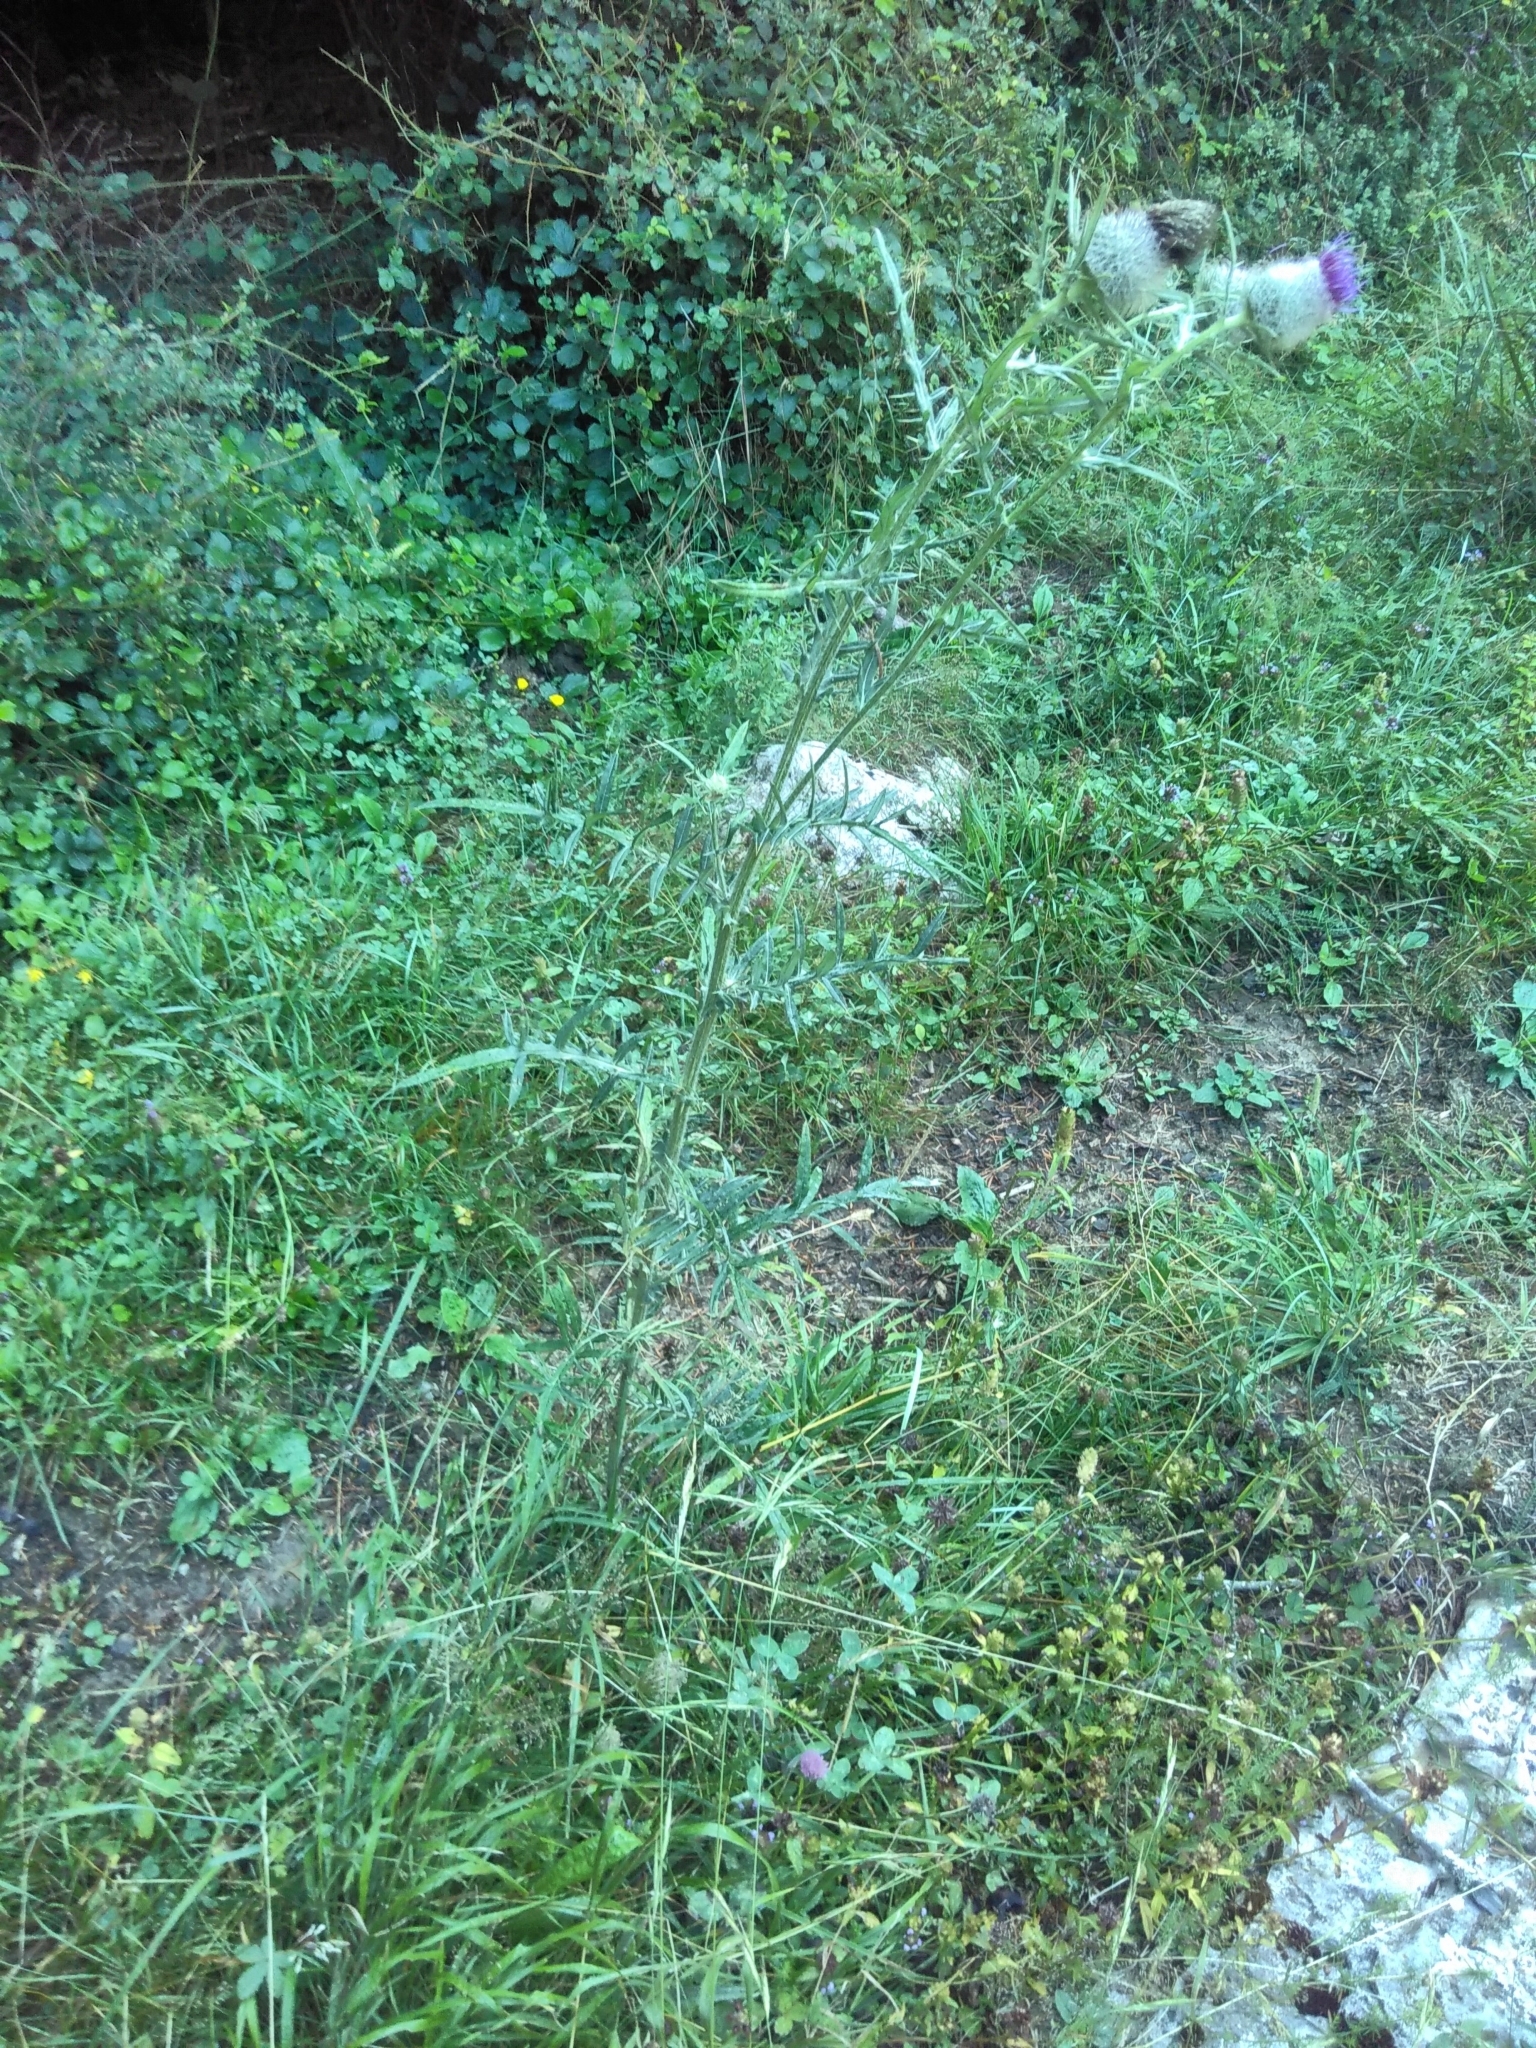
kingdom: Plantae
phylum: Tracheophyta
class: Magnoliopsida
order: Asterales
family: Asteraceae
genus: Lophiolepis
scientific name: Lophiolepis eriophora
